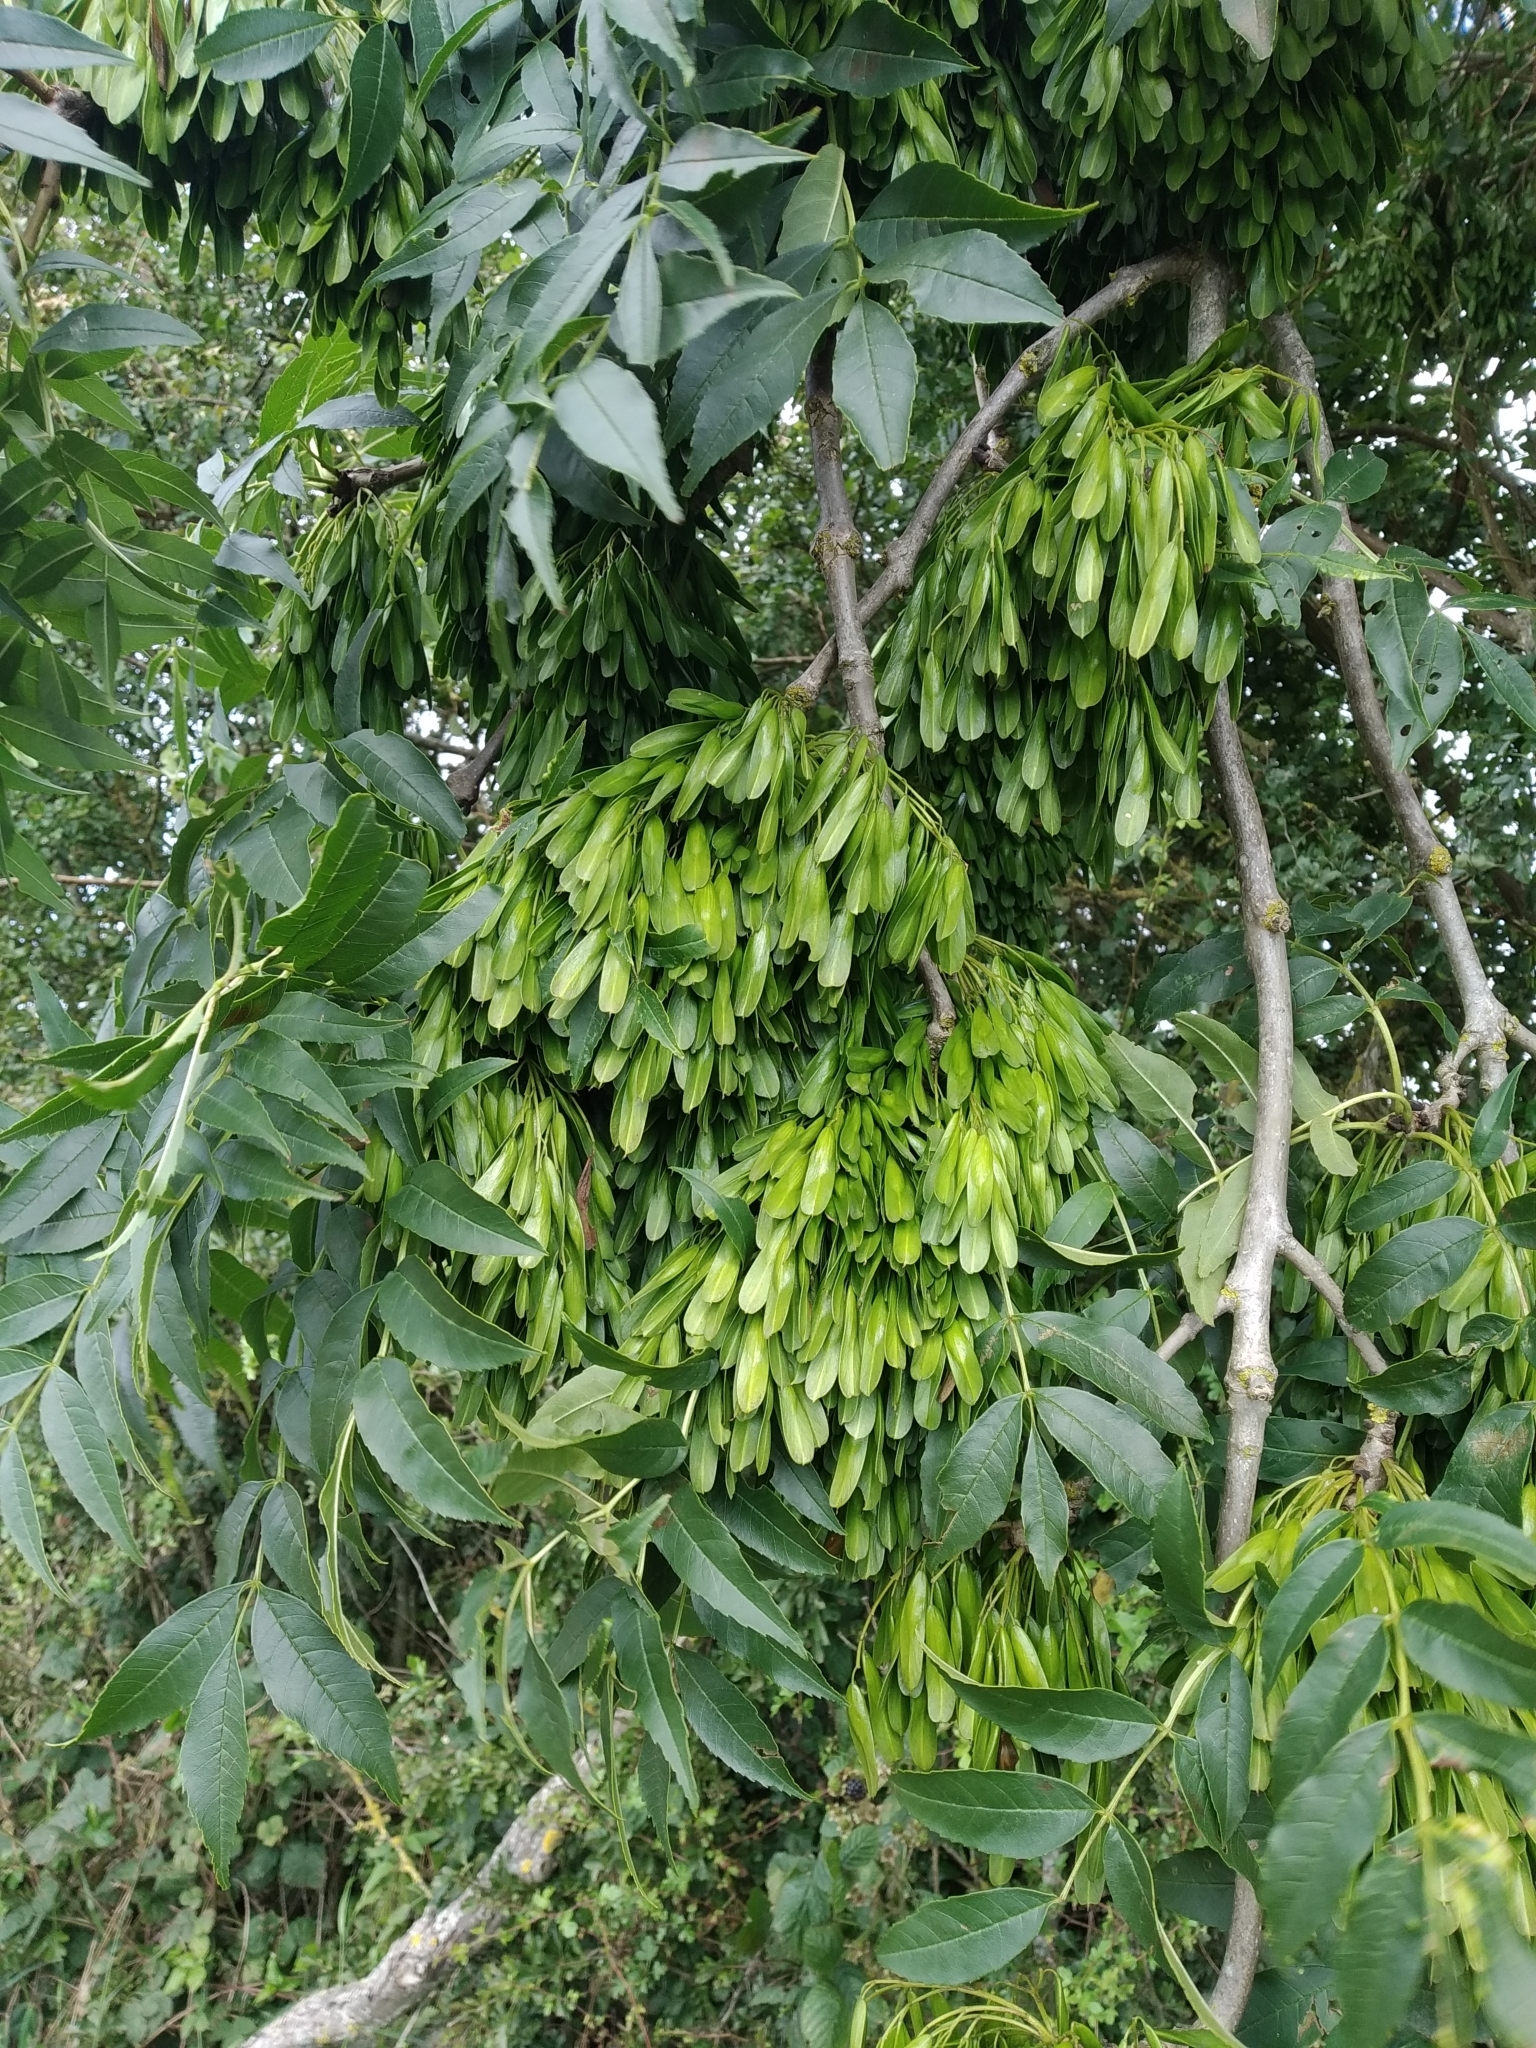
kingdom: Plantae
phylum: Tracheophyta
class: Magnoliopsida
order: Lamiales
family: Oleaceae
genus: Fraxinus
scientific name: Fraxinus excelsior
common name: European ash
